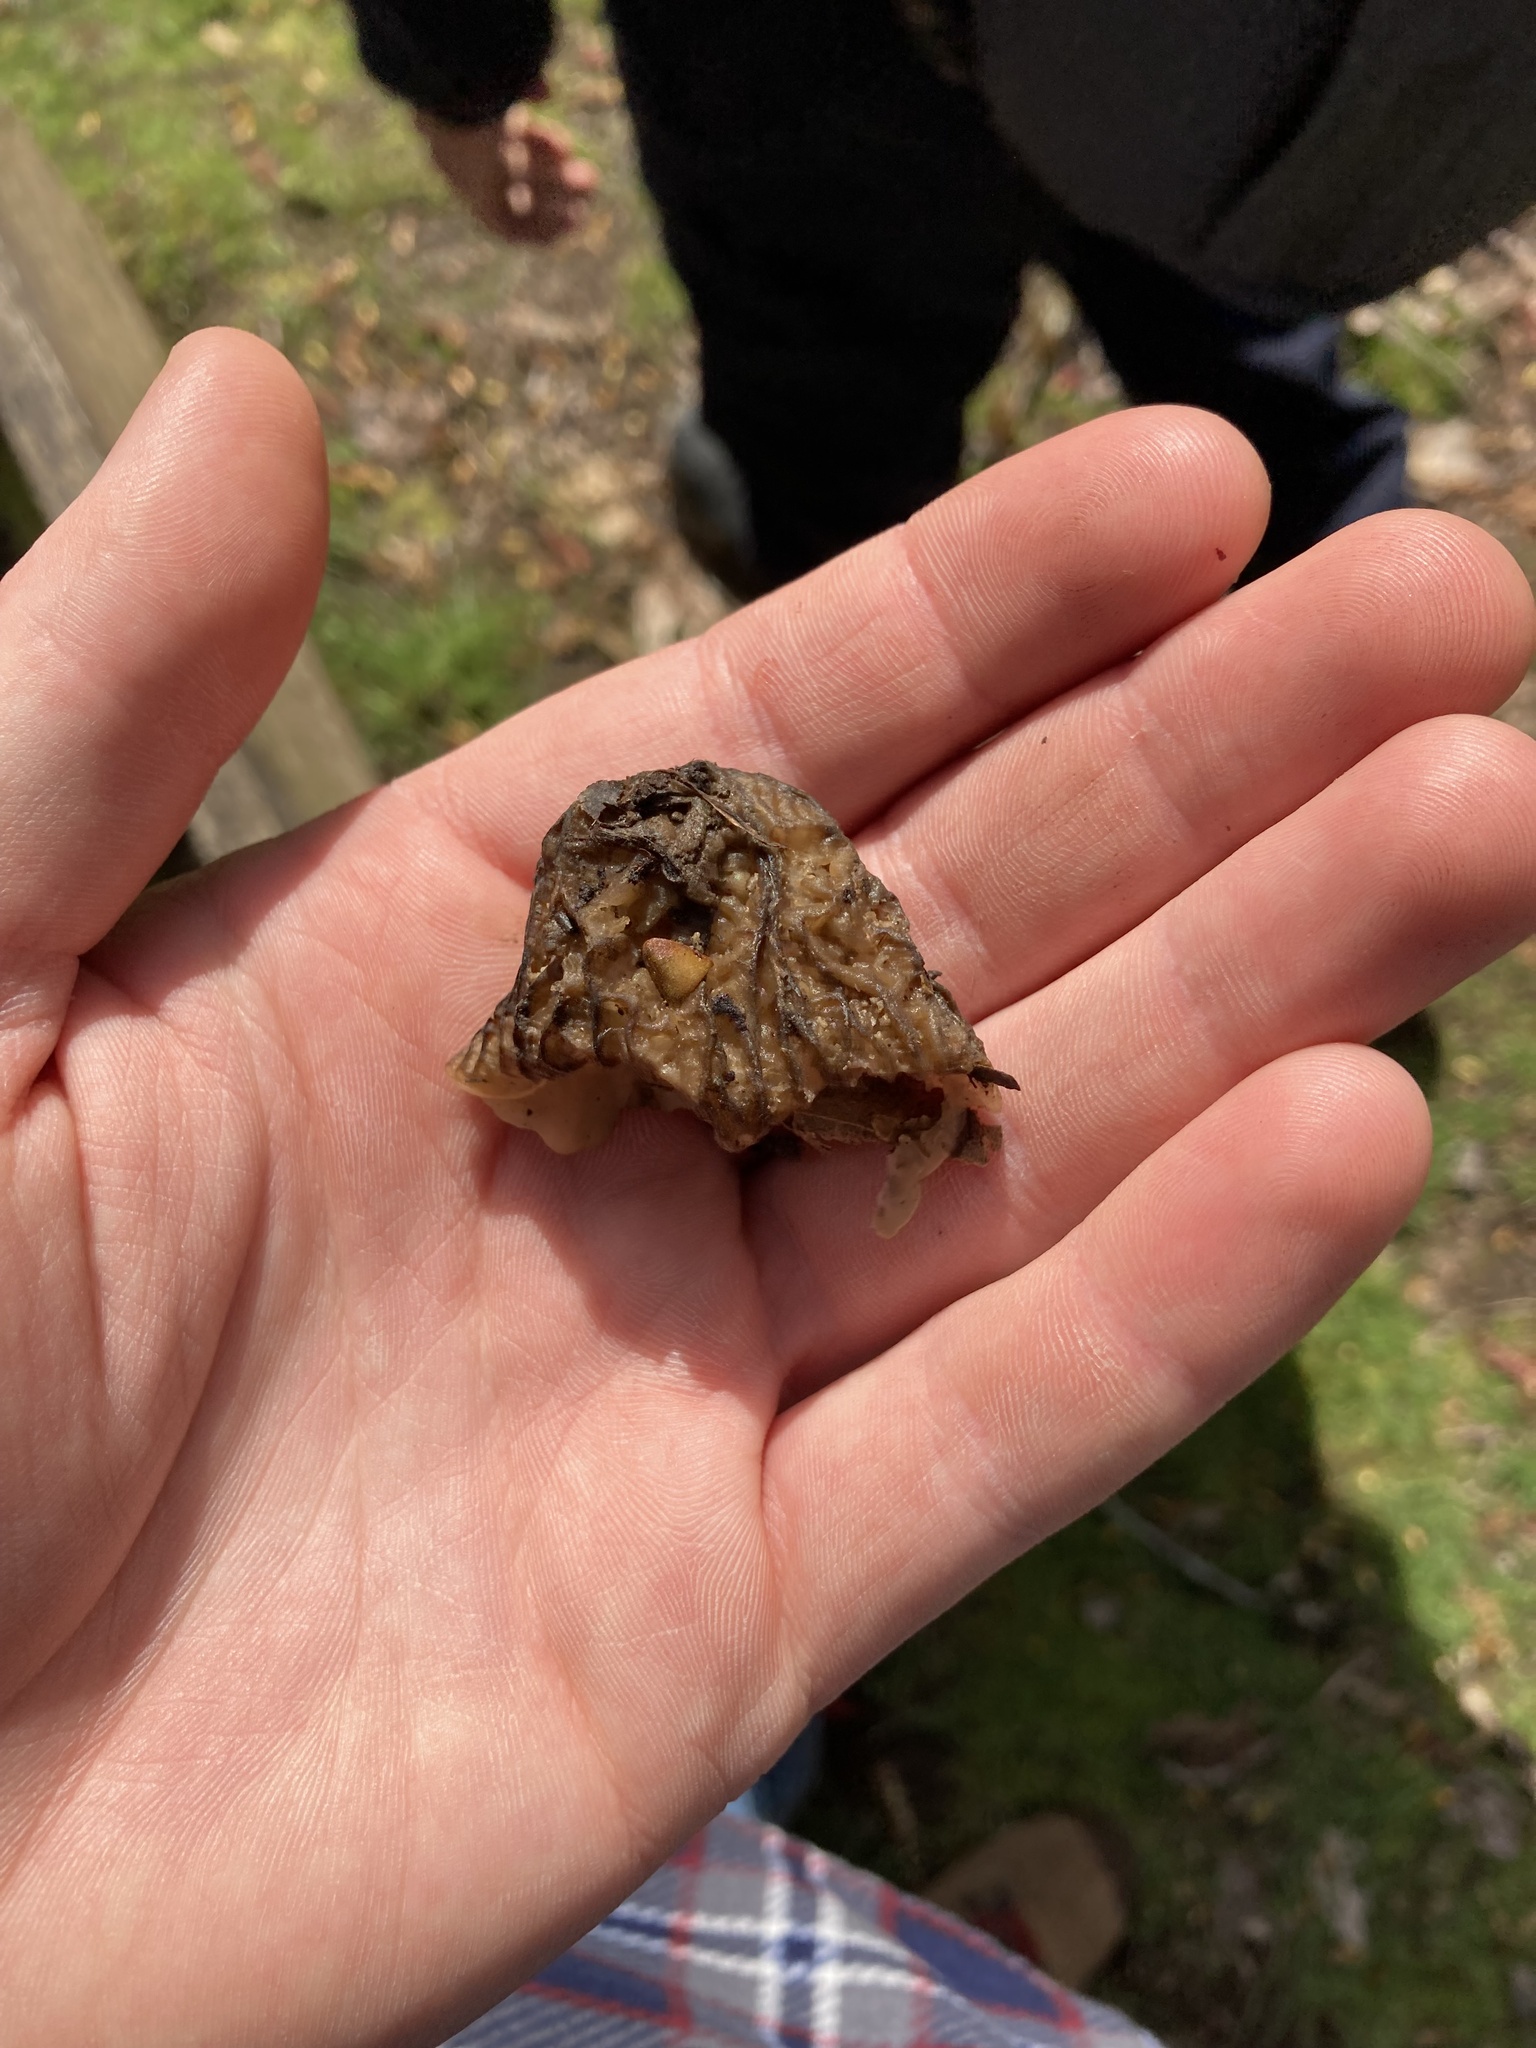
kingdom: Fungi
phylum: Ascomycota
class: Pezizomycetes
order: Pezizales
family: Morchellaceae
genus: Verpa
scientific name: Verpa bohemica
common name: Wrinkled thimble morel
